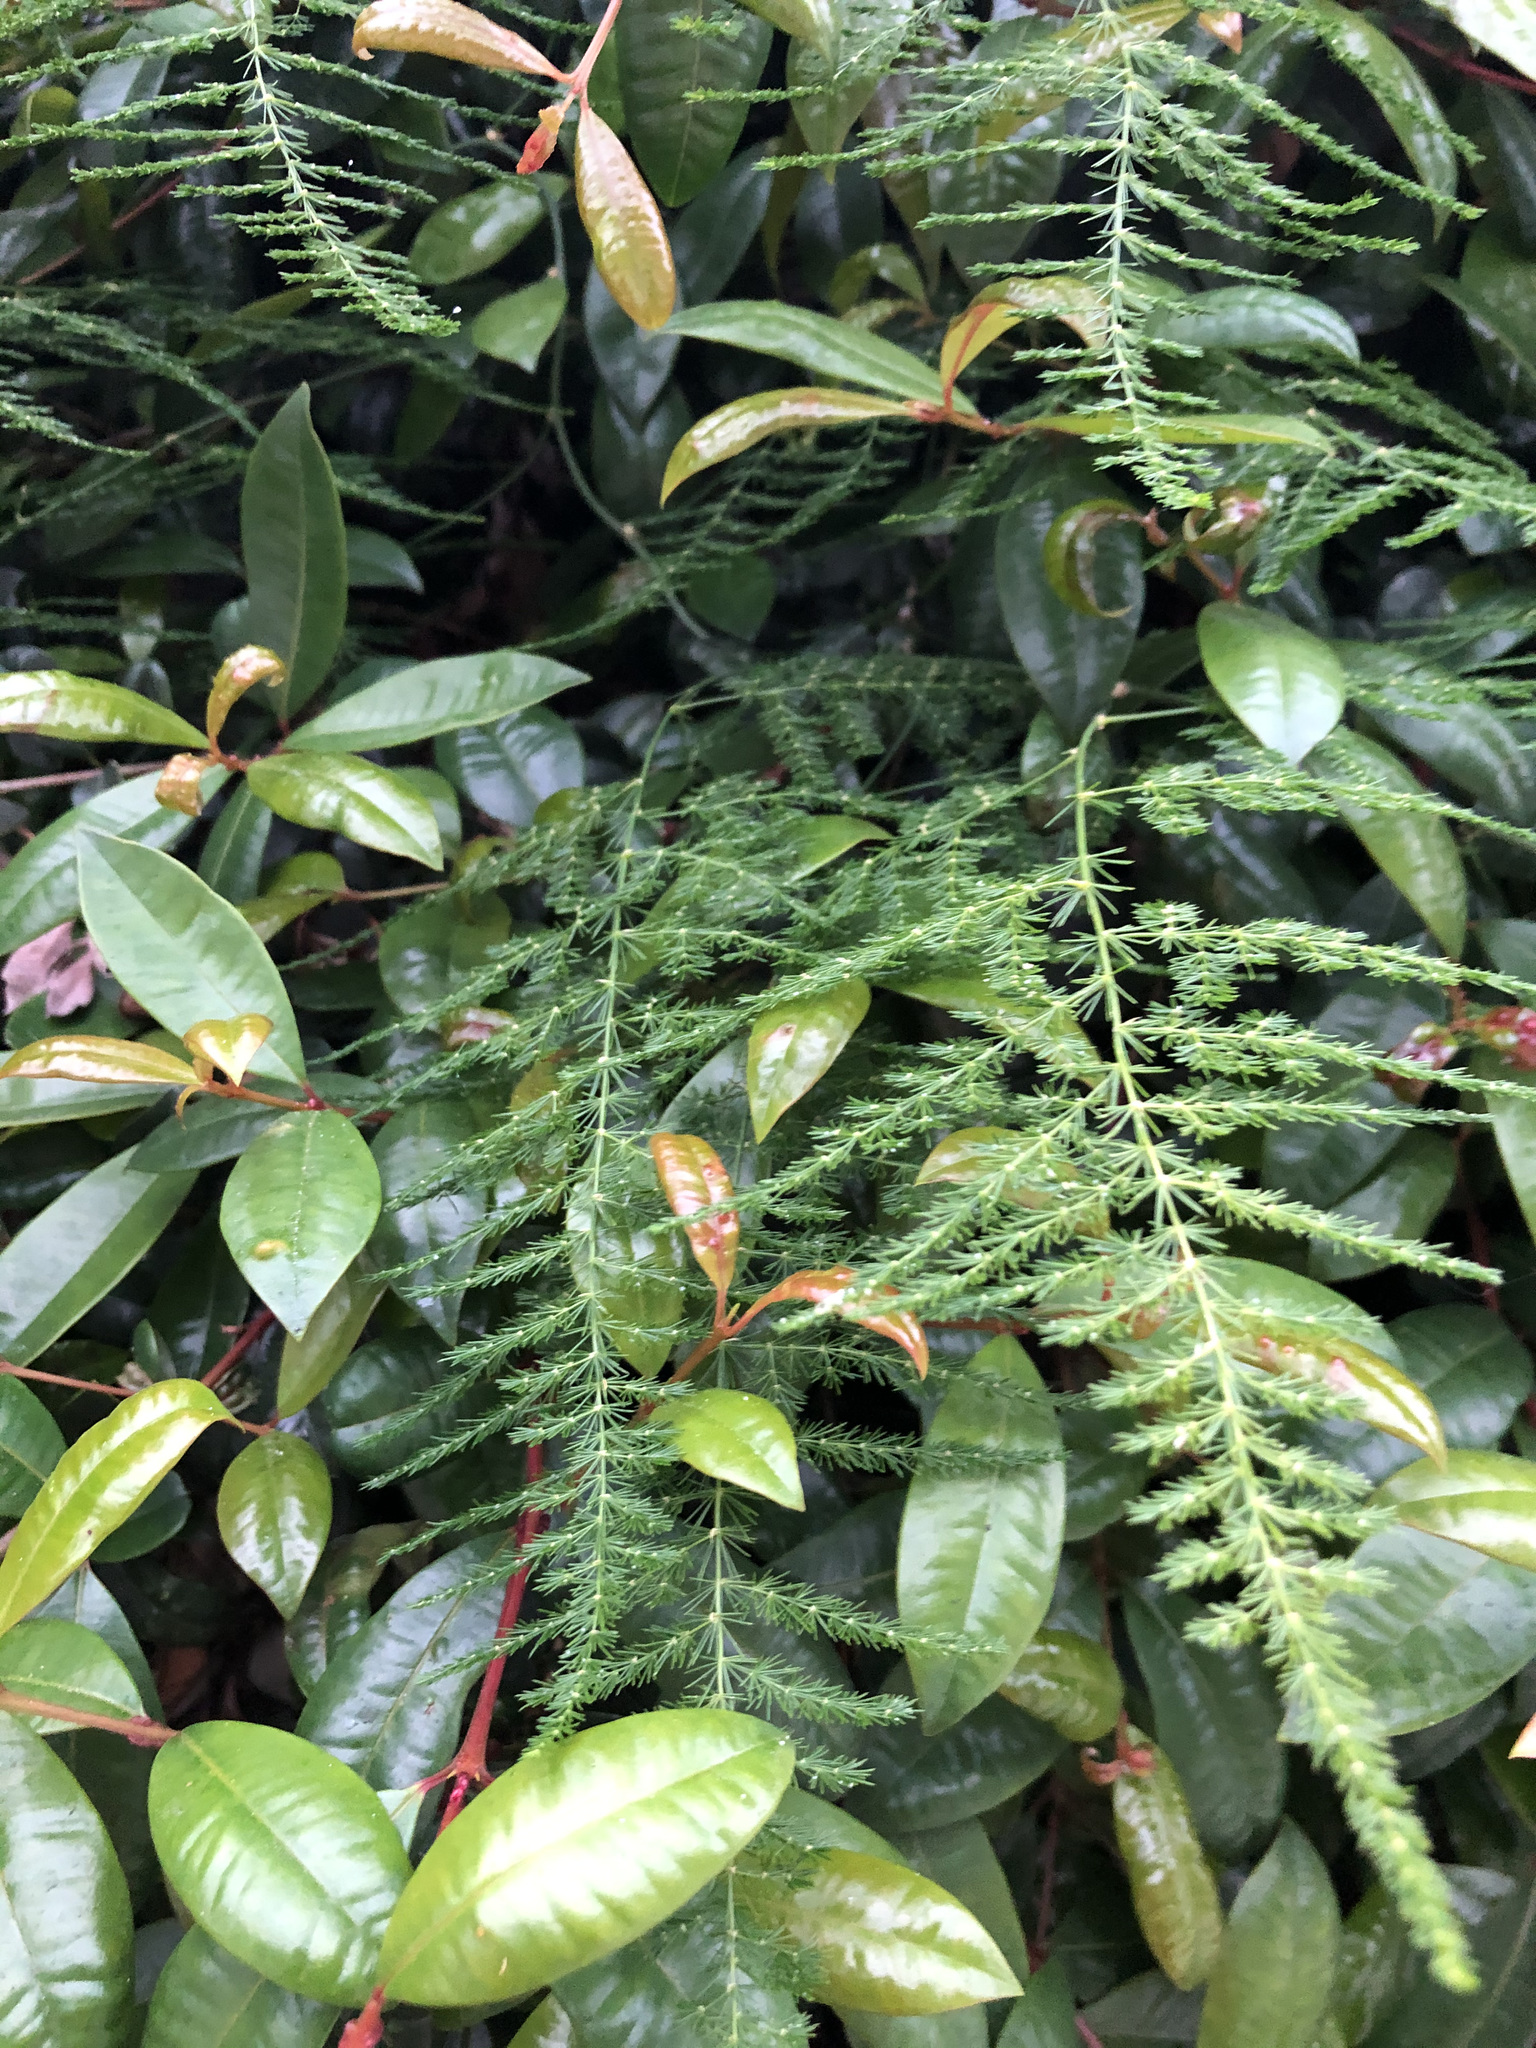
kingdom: Plantae
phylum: Tracheophyta
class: Liliopsida
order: Asparagales
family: Asparagaceae
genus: Asparagus
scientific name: Asparagus setaceus
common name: Common asparagus fern
